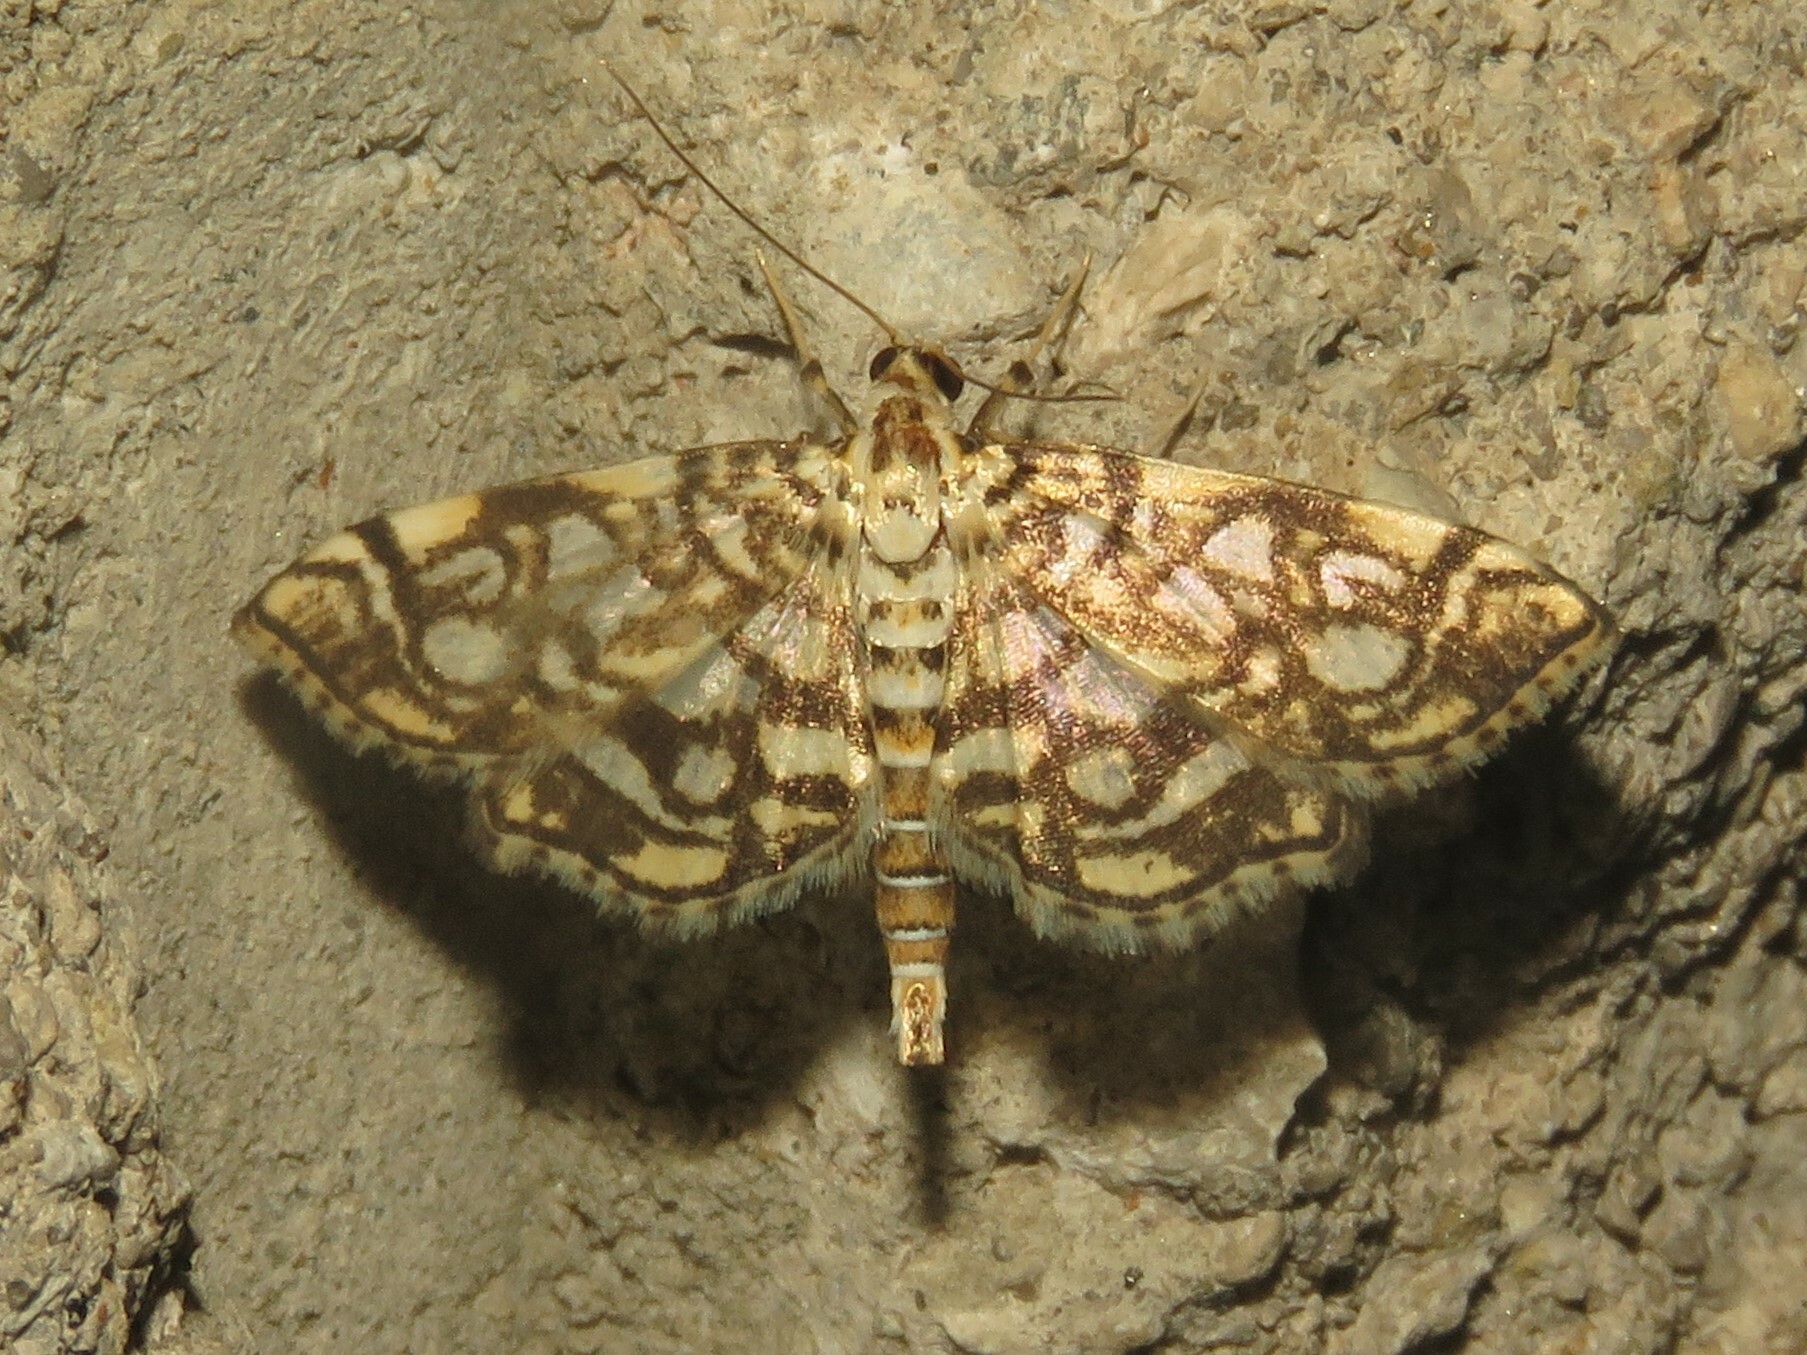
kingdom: Animalia
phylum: Arthropoda
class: Insecta
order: Lepidoptera
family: Crambidae
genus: Lygropia
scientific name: Lygropia rivulalis
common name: Bog lygropia moth
